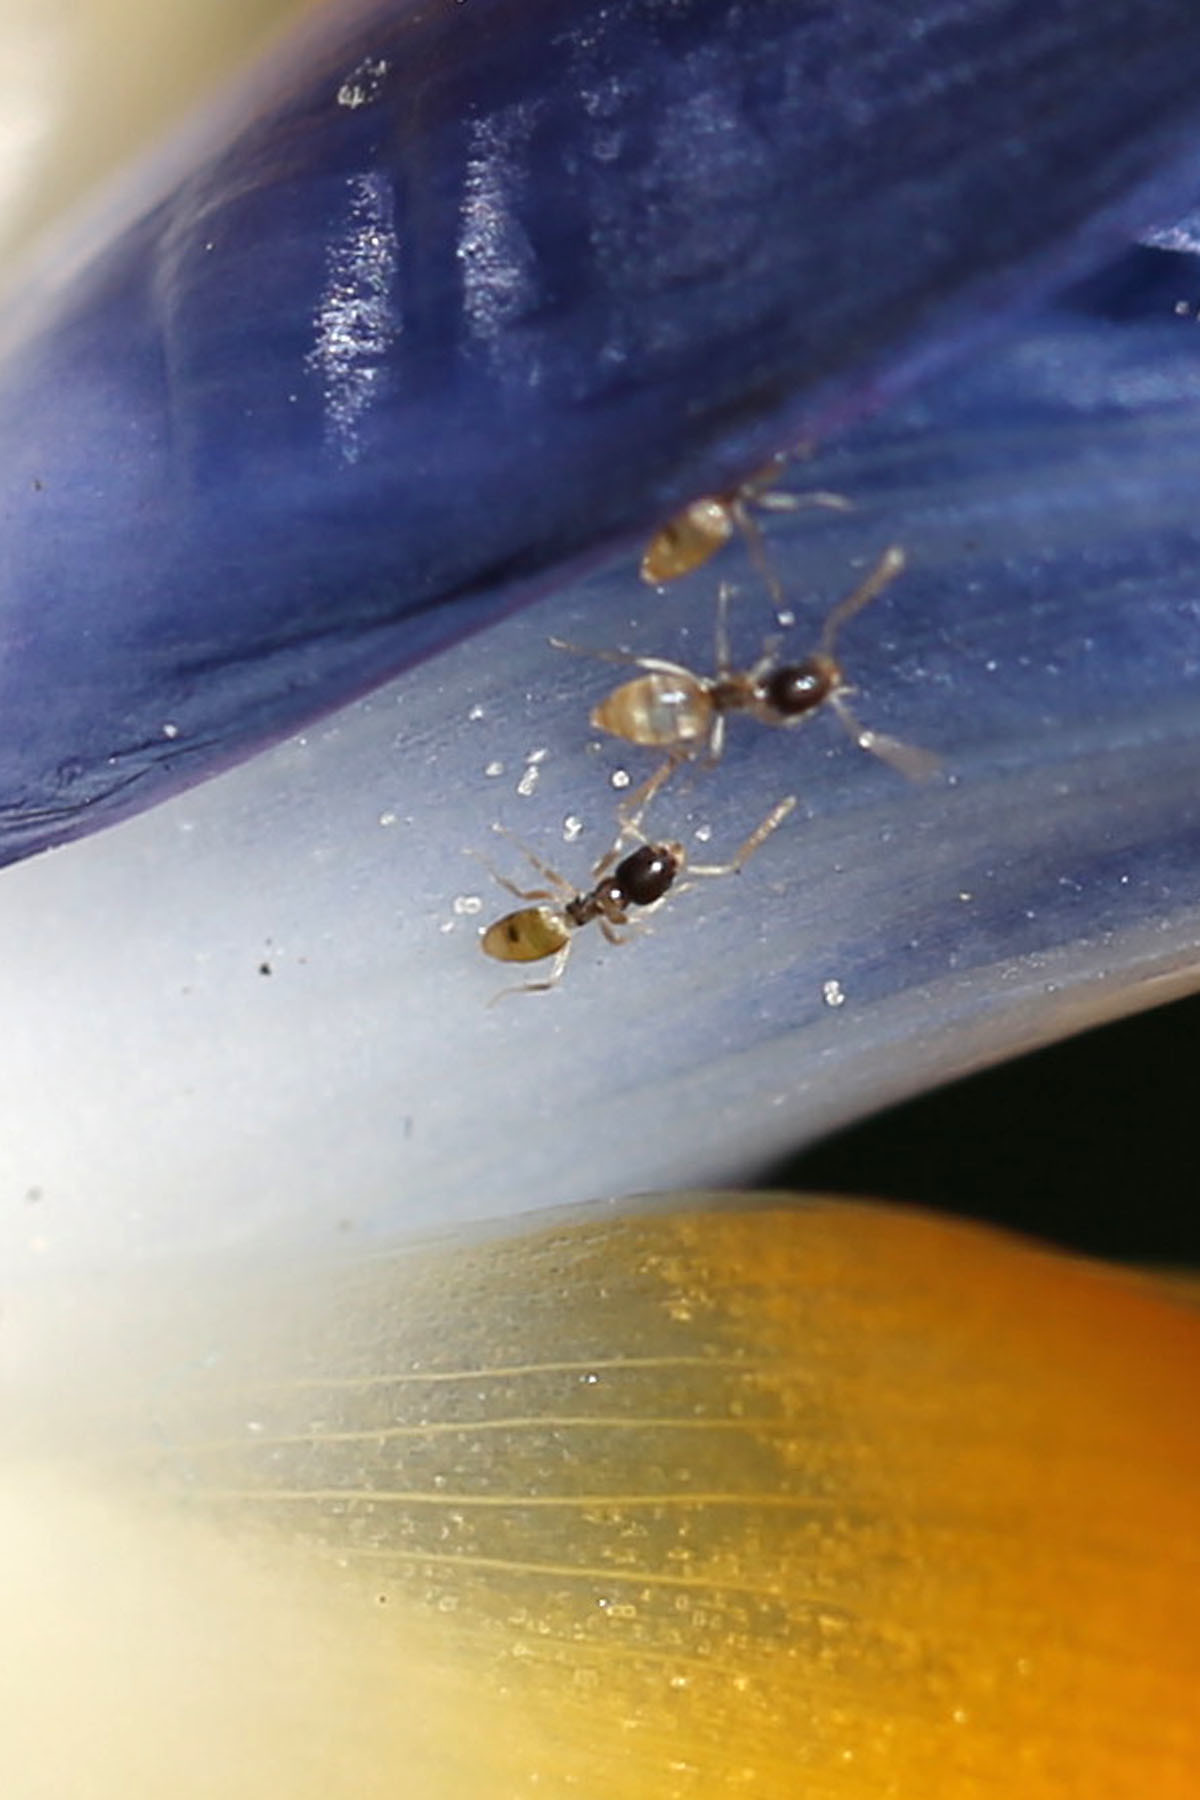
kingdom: Animalia
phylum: Arthropoda
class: Insecta
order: Hymenoptera
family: Formicidae
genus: Tapinoma
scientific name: Tapinoma melanocephalum
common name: Ghost ant
